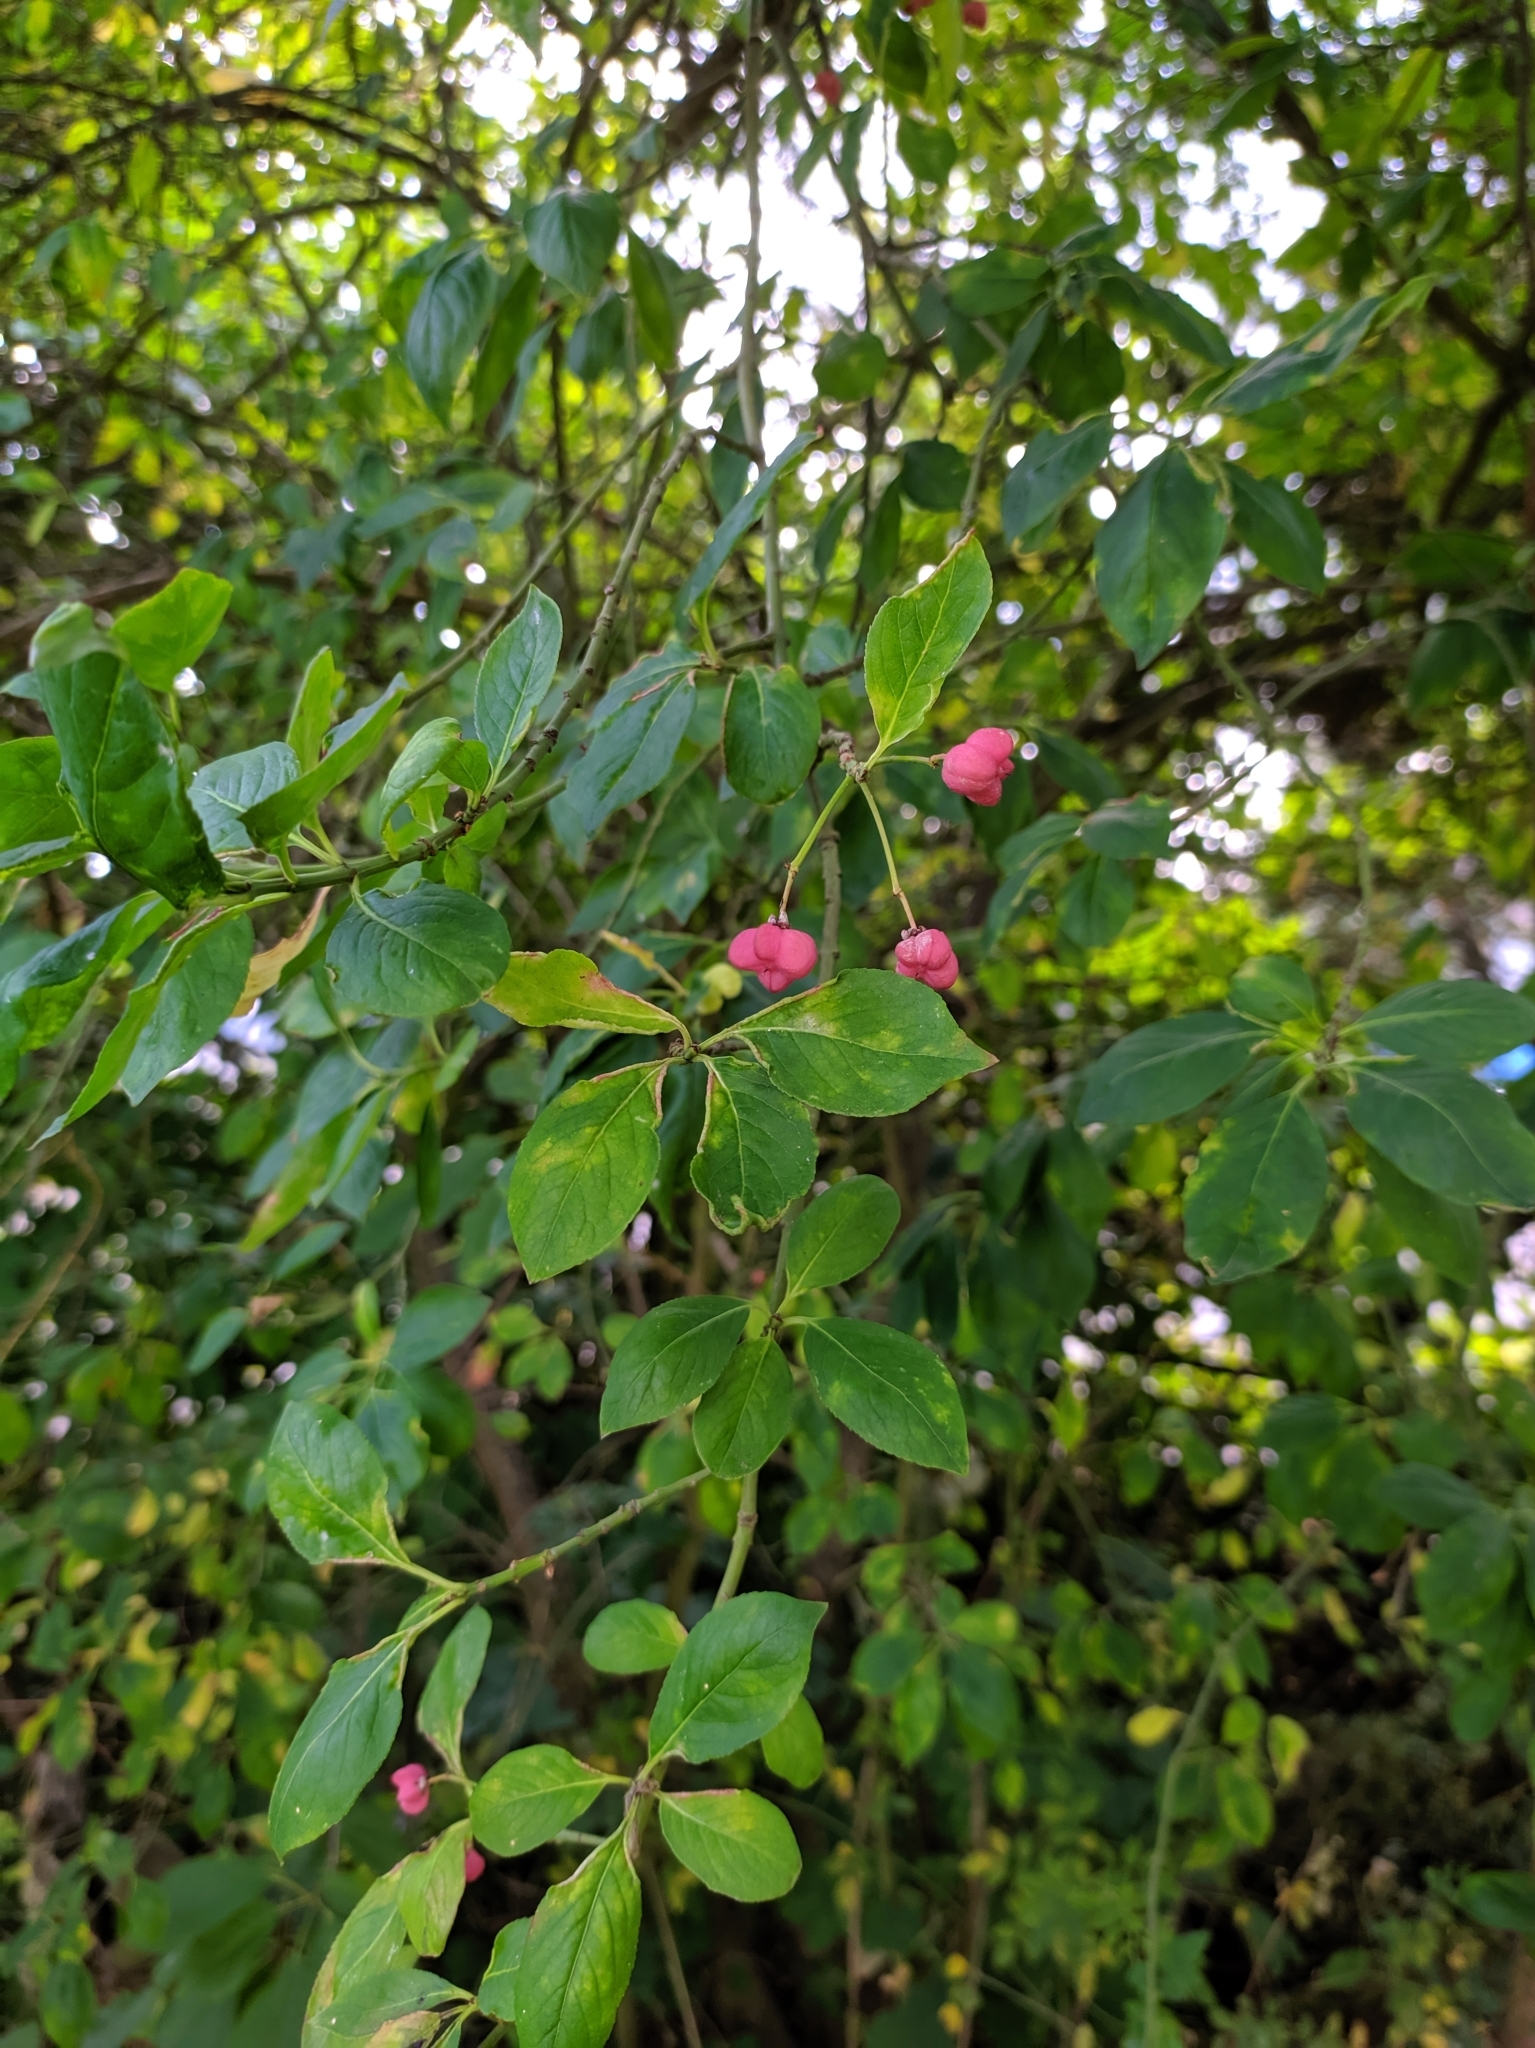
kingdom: Plantae
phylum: Tracheophyta
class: Magnoliopsida
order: Celastrales
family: Celastraceae
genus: Euonymus
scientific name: Euonymus europaeus
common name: Spindle
